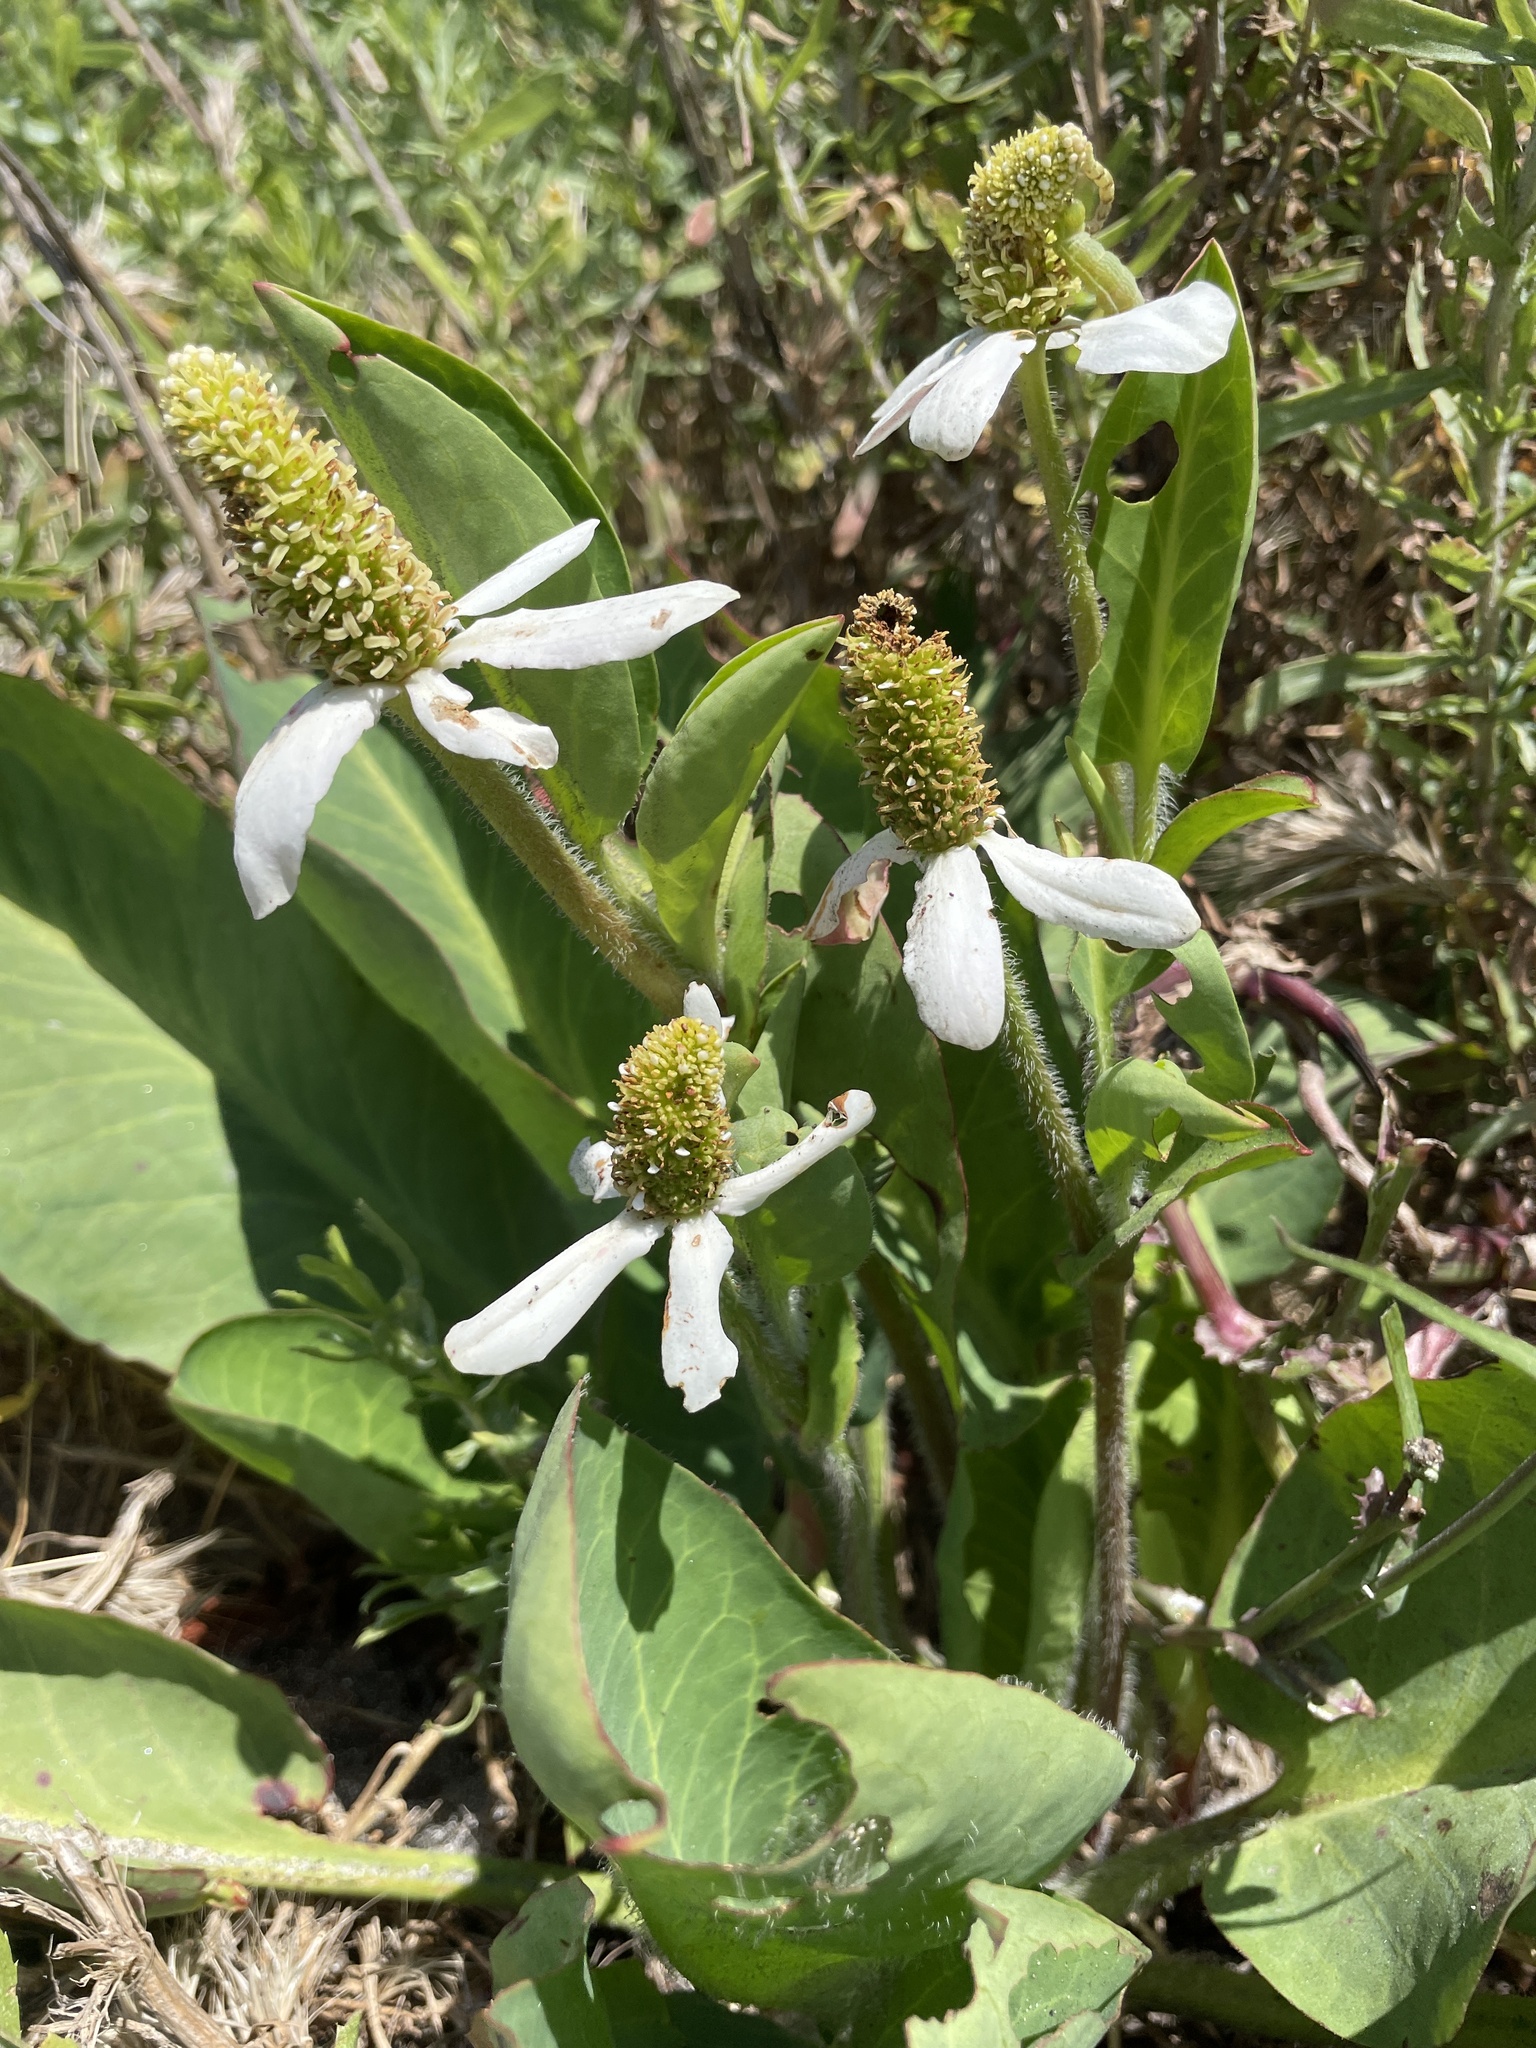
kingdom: Plantae
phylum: Tracheophyta
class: Magnoliopsida
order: Piperales
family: Saururaceae
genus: Anemopsis
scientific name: Anemopsis californica
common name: Apache-beads
